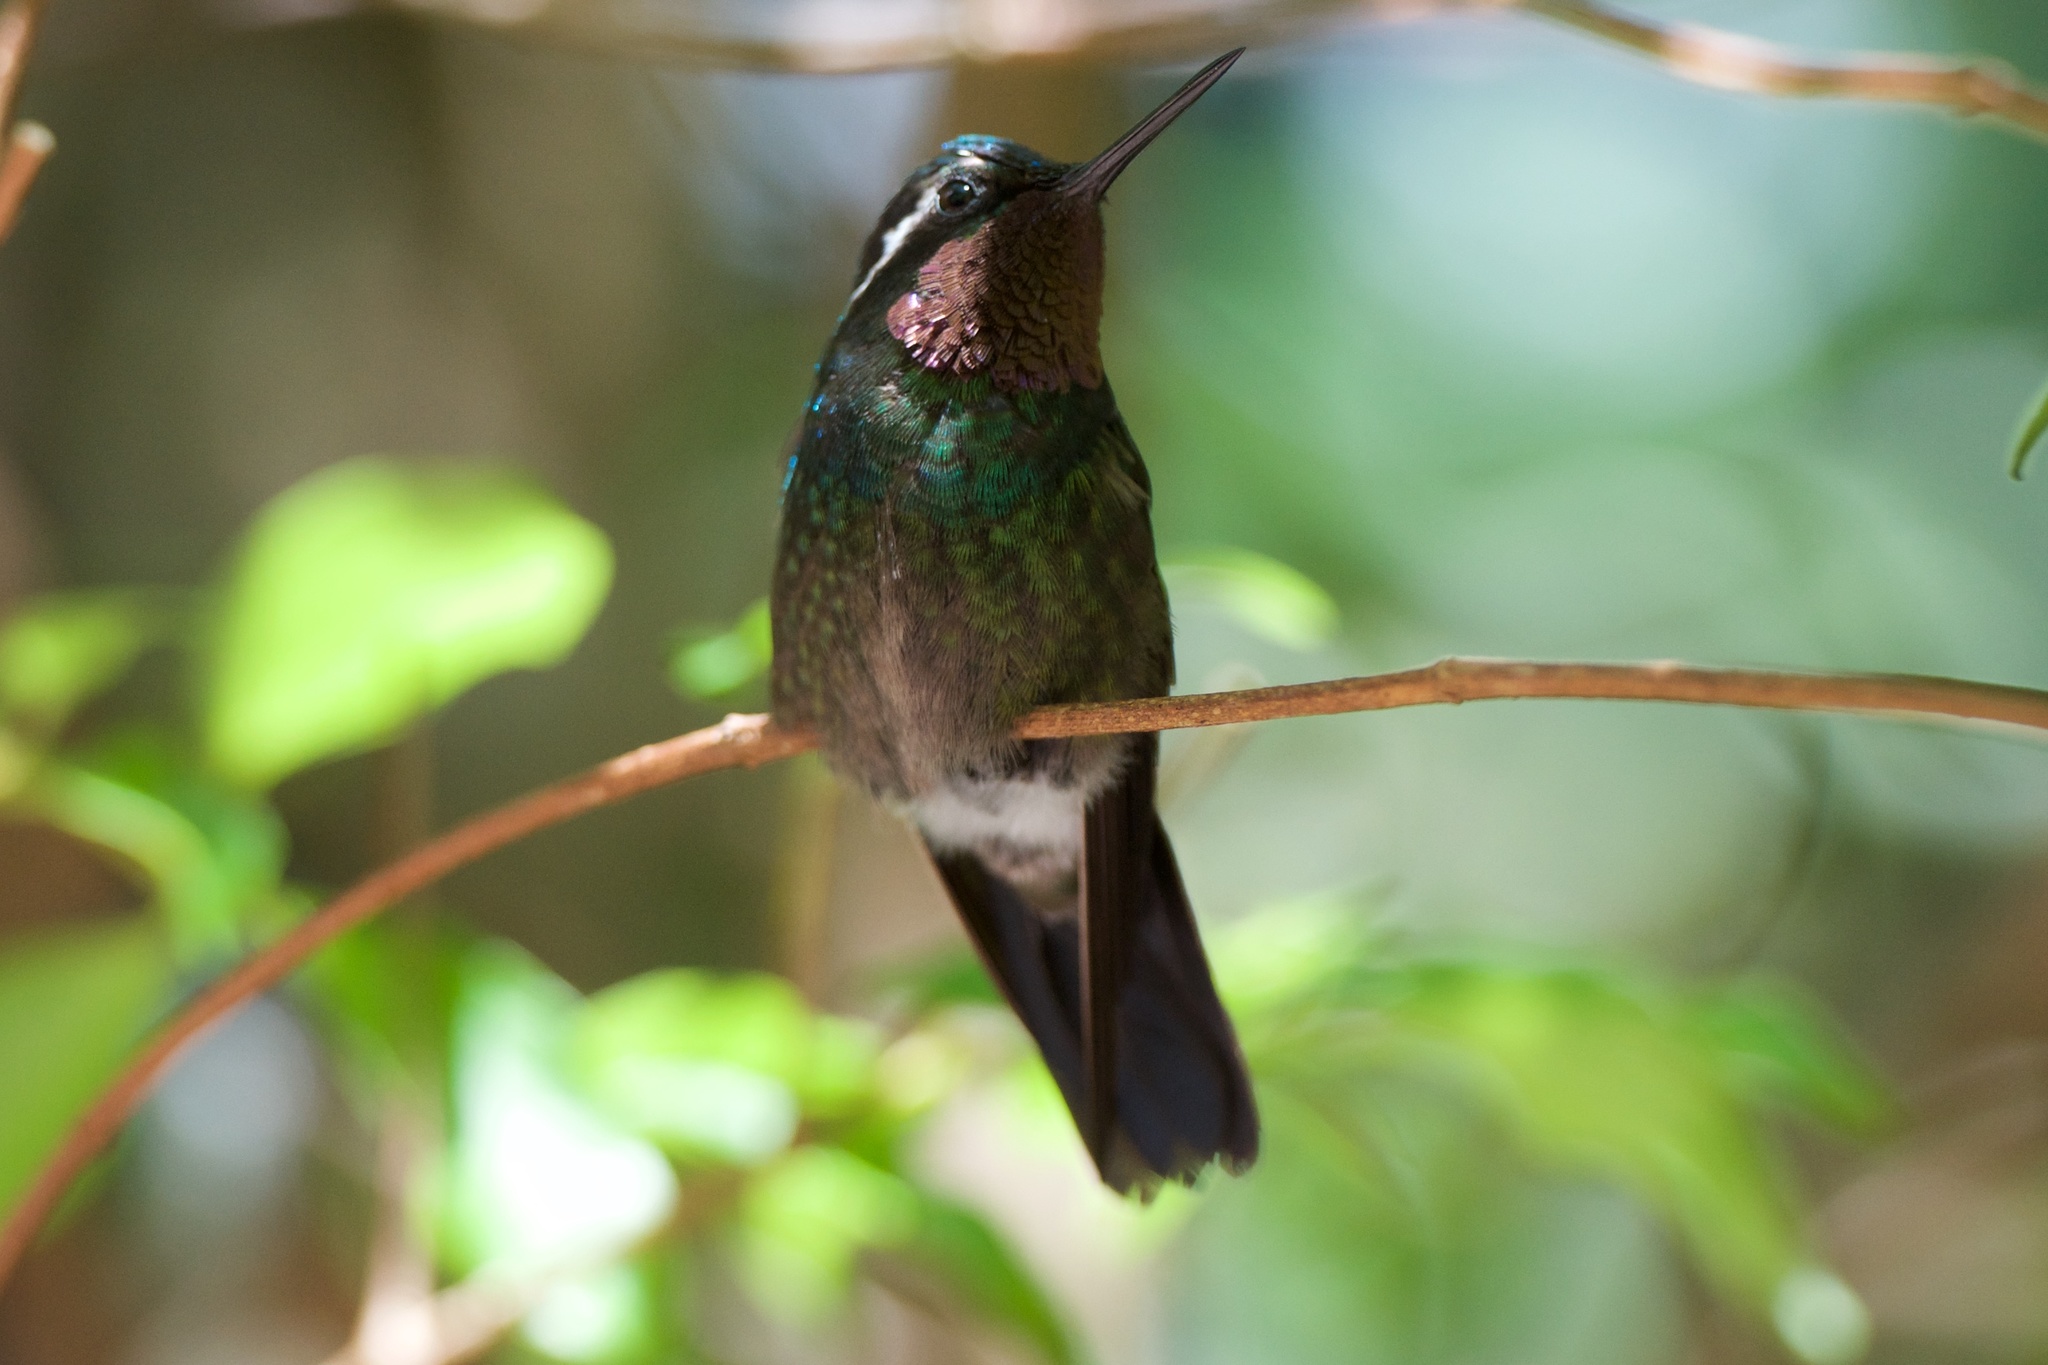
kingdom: Animalia
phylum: Chordata
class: Aves
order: Apodiformes
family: Trochilidae
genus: Lampornis
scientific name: Lampornis calolaemus
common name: Purple-throated mountain-gem
